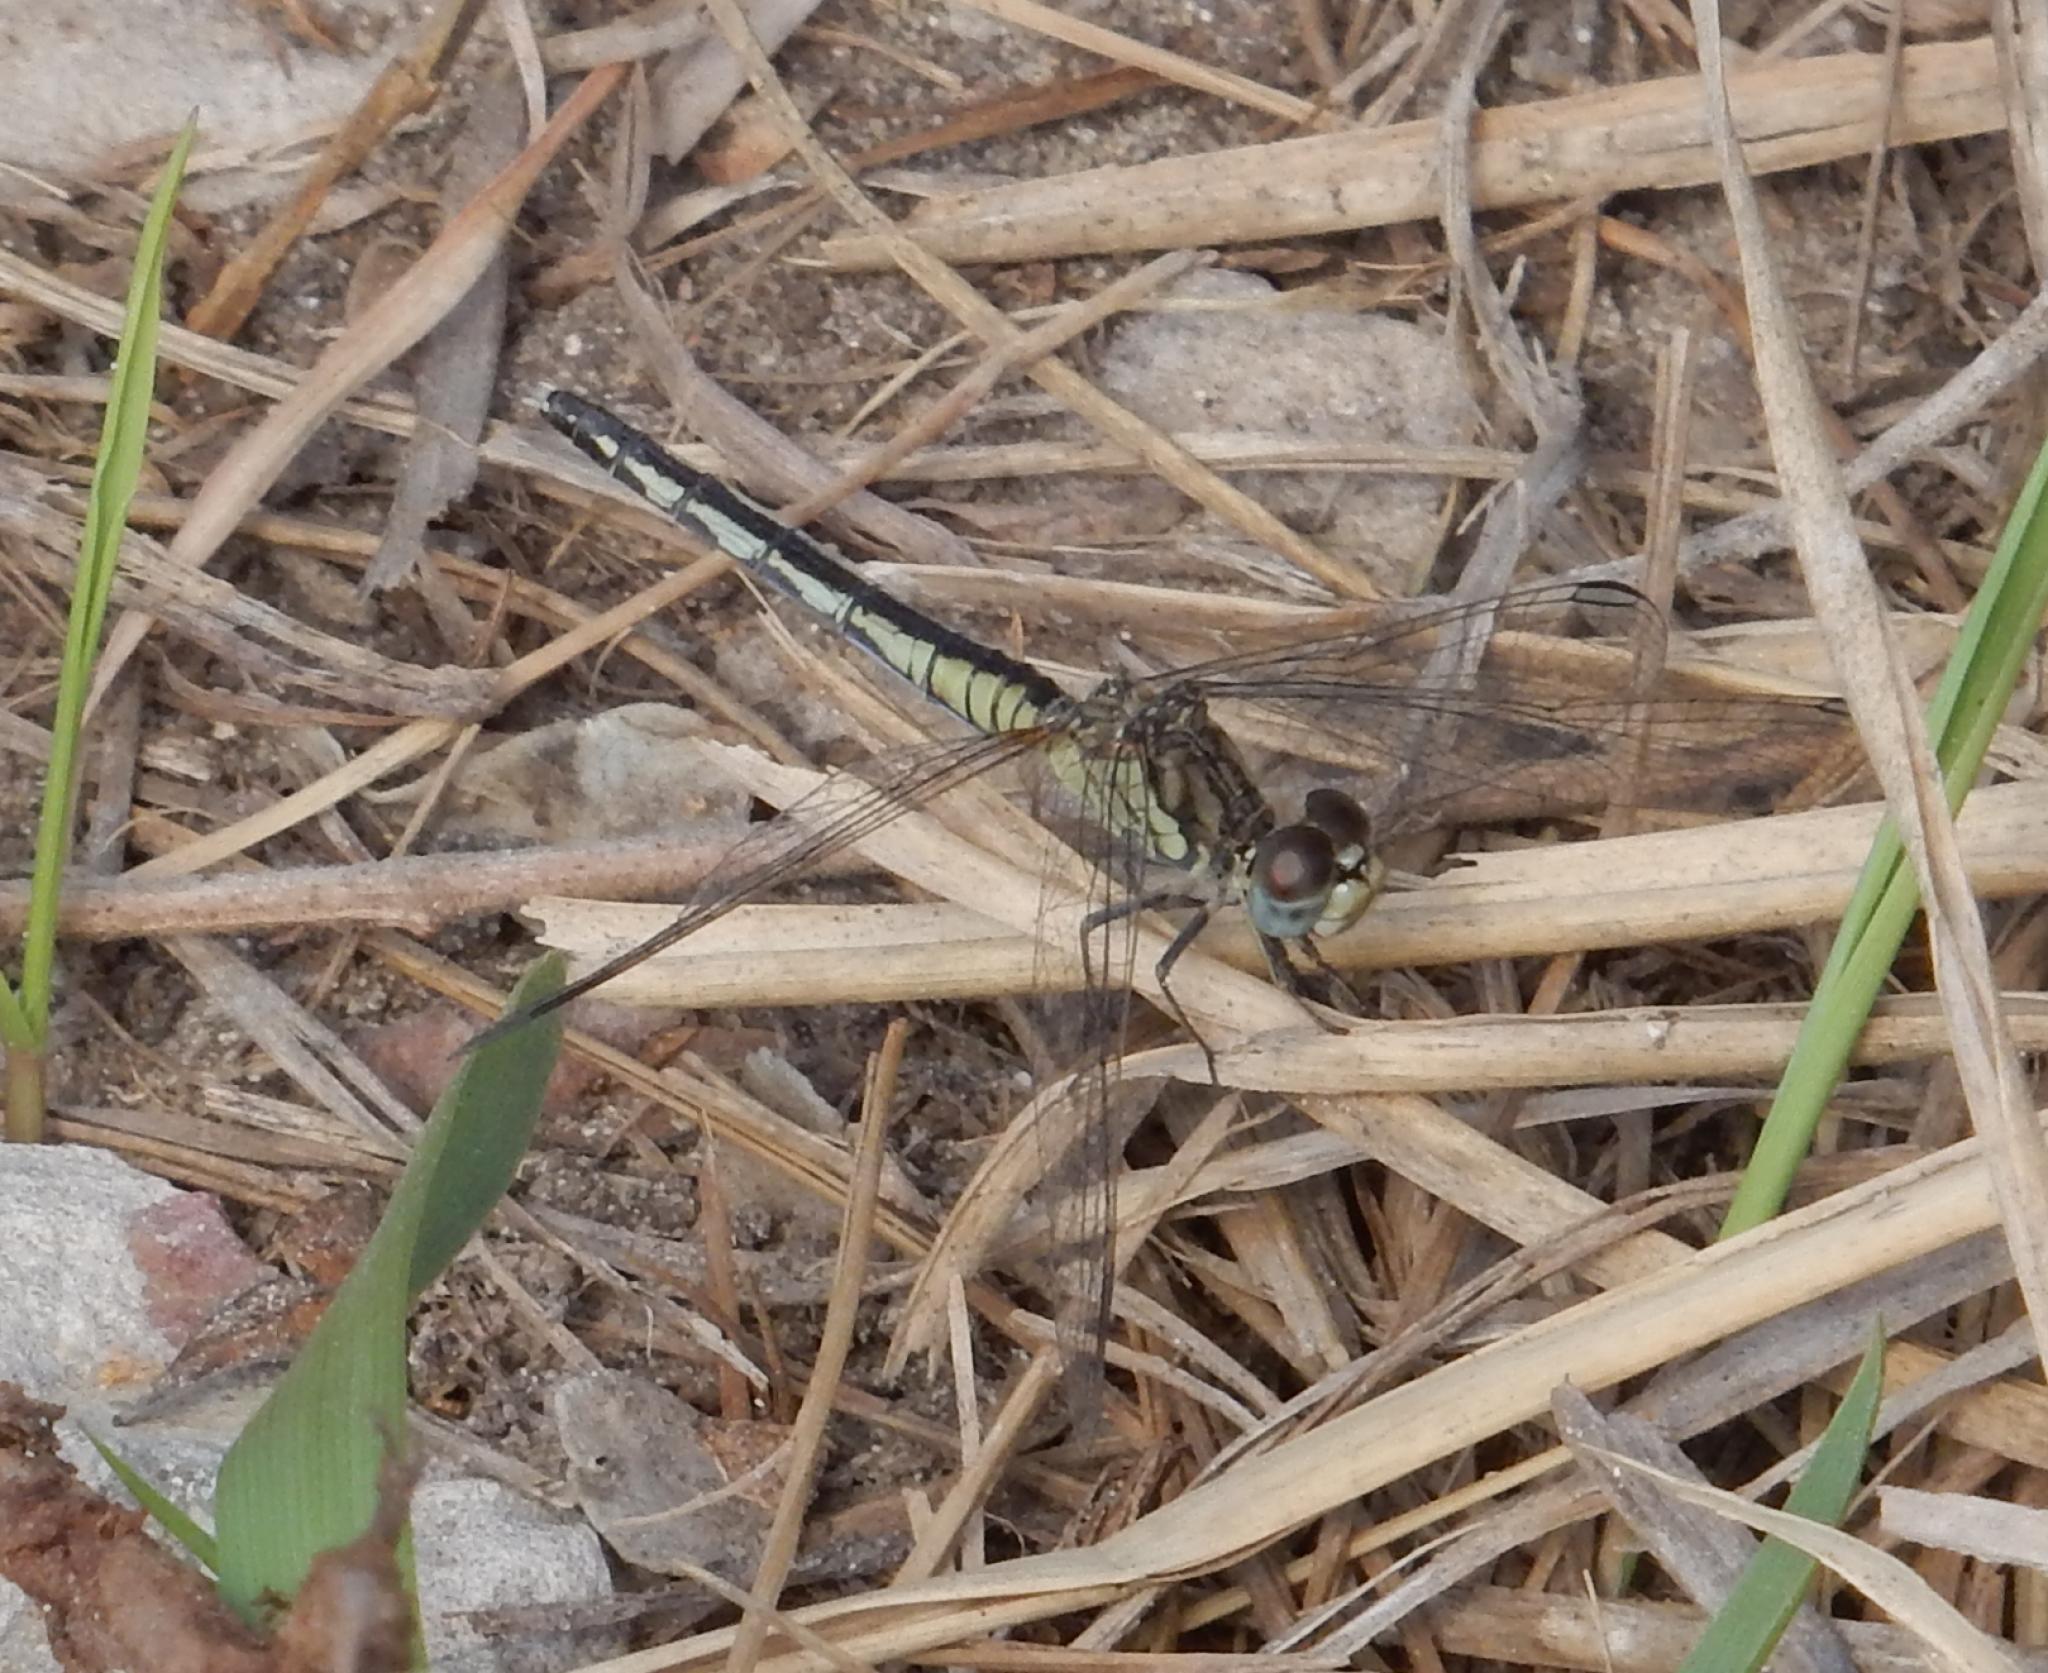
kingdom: Animalia
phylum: Arthropoda
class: Insecta
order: Odonata
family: Libellulidae
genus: Diplacodes
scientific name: Diplacodes lefebvrii
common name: Black percher
